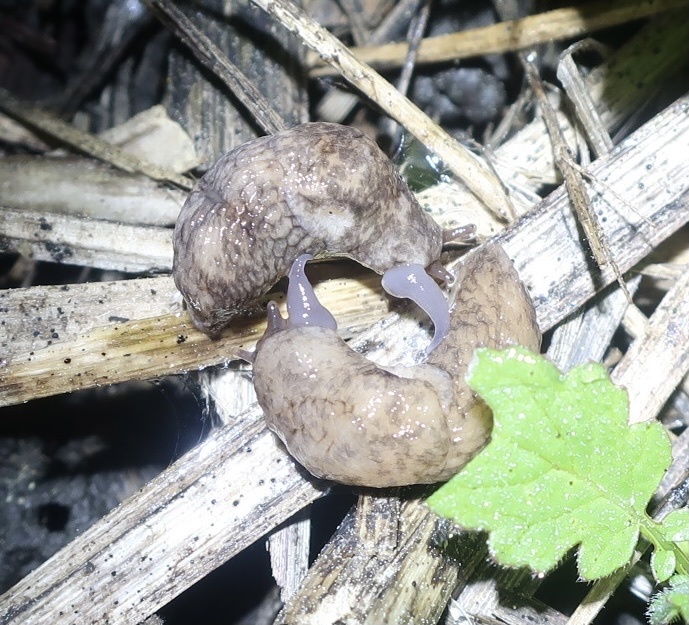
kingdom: Animalia
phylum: Mollusca
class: Gastropoda
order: Stylommatophora
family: Agriolimacidae
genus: Deroceras
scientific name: Deroceras reticulatum
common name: Gray field slug
